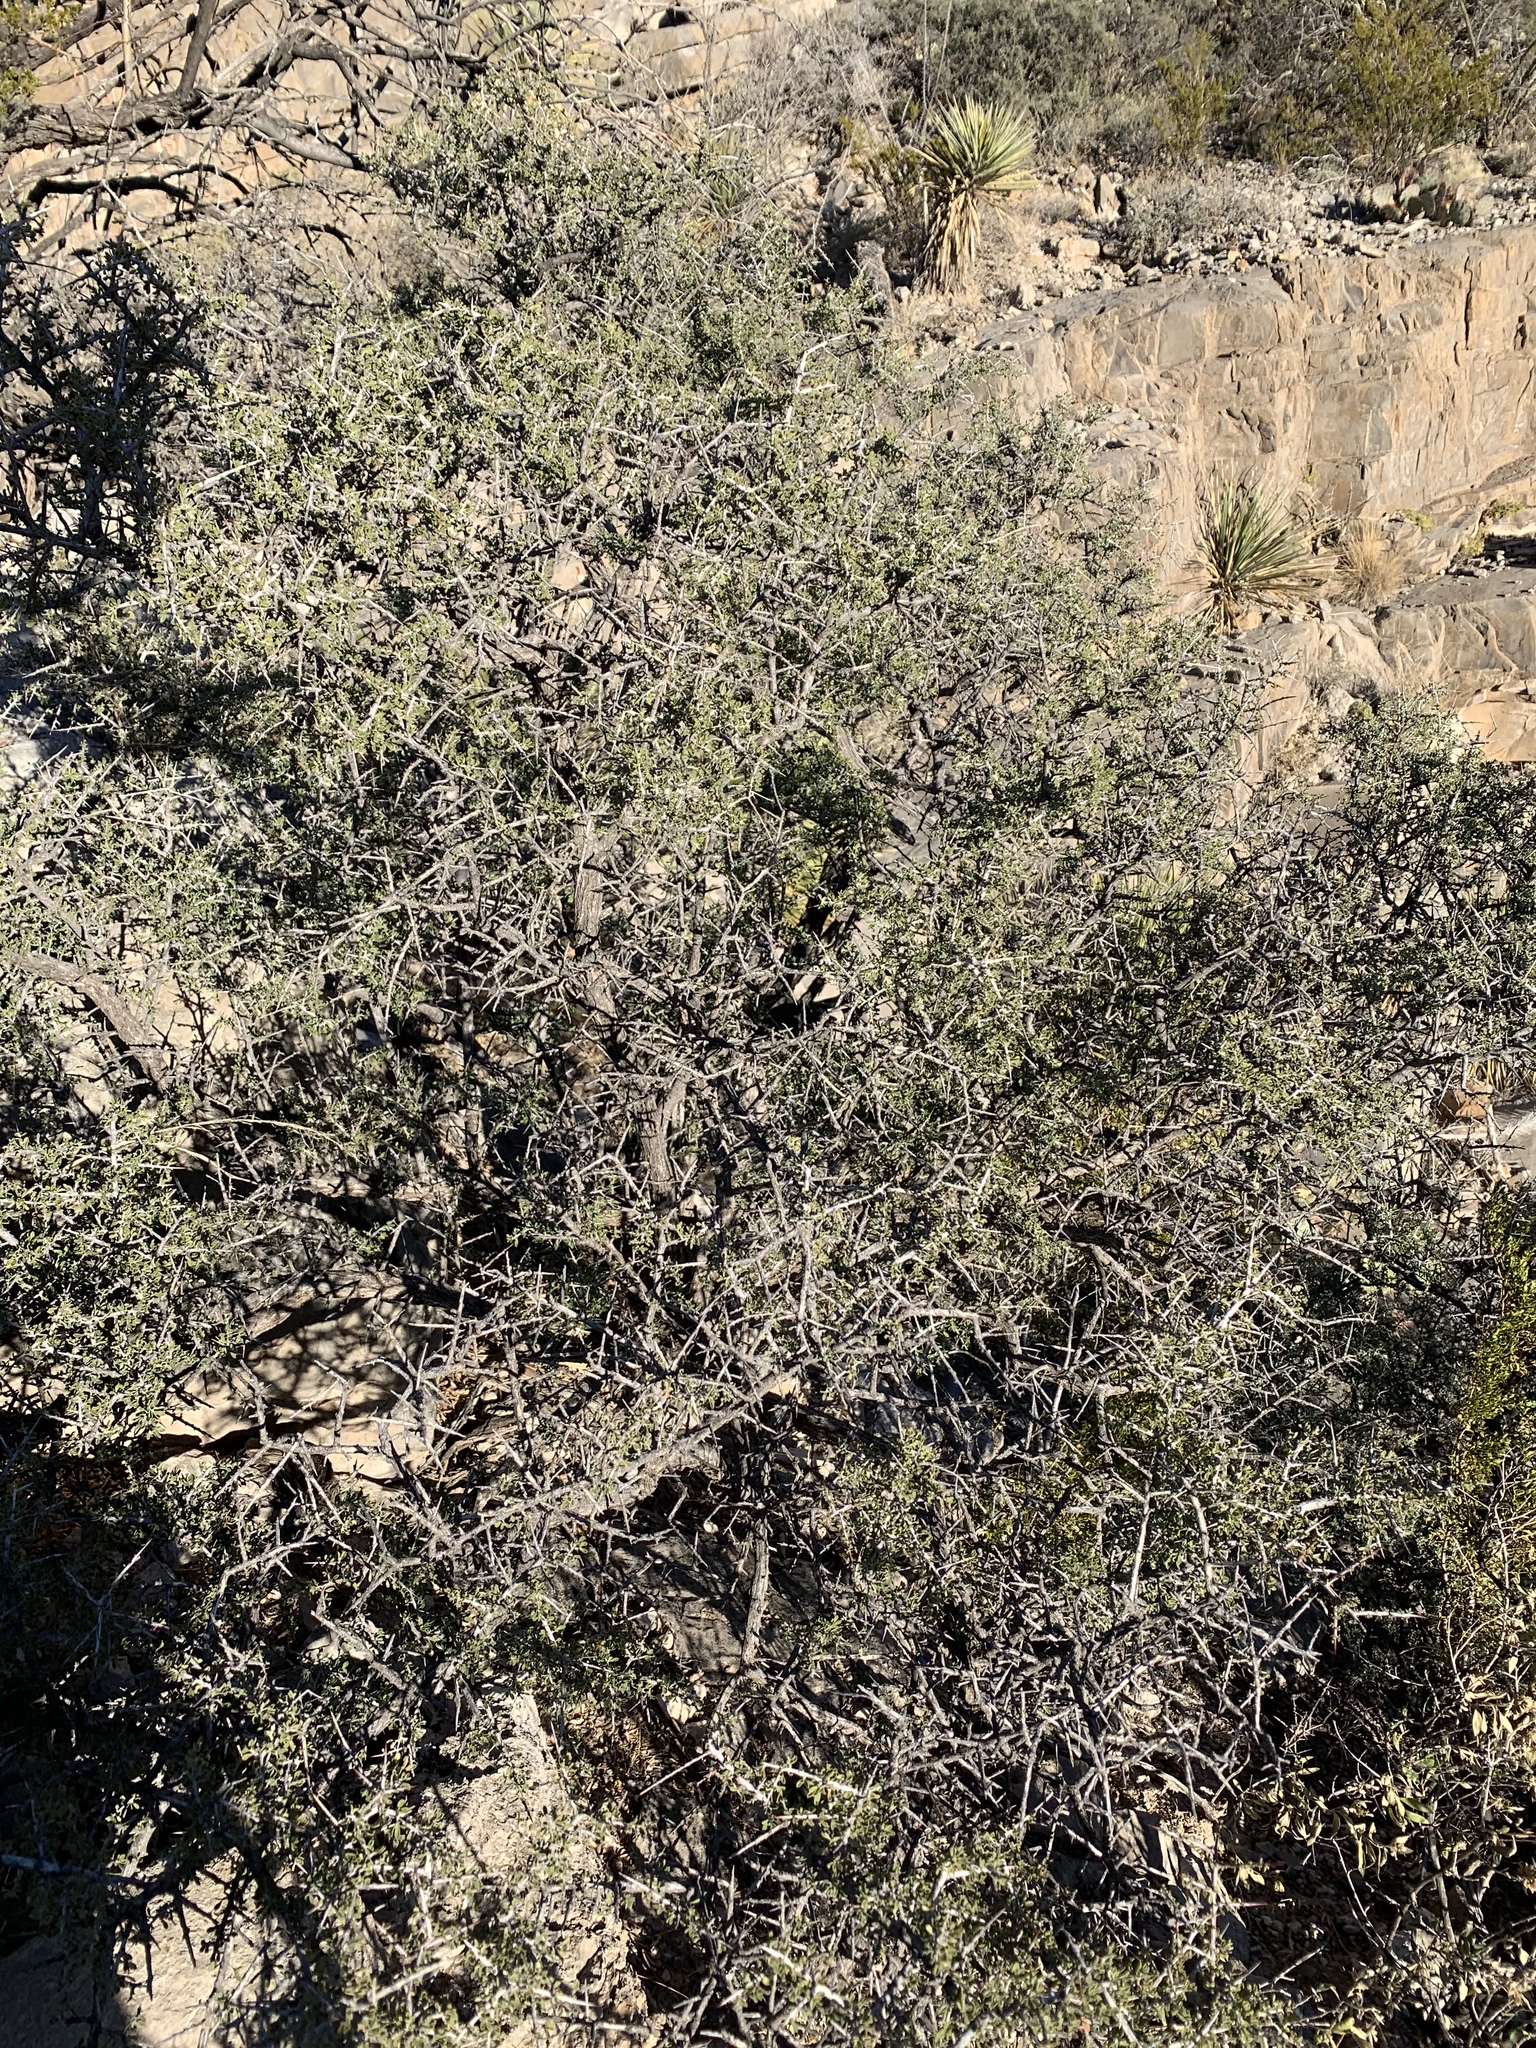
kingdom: Plantae
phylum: Tracheophyta
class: Magnoliopsida
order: Rosales
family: Rhamnaceae
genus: Condalia
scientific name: Condalia warnockii
